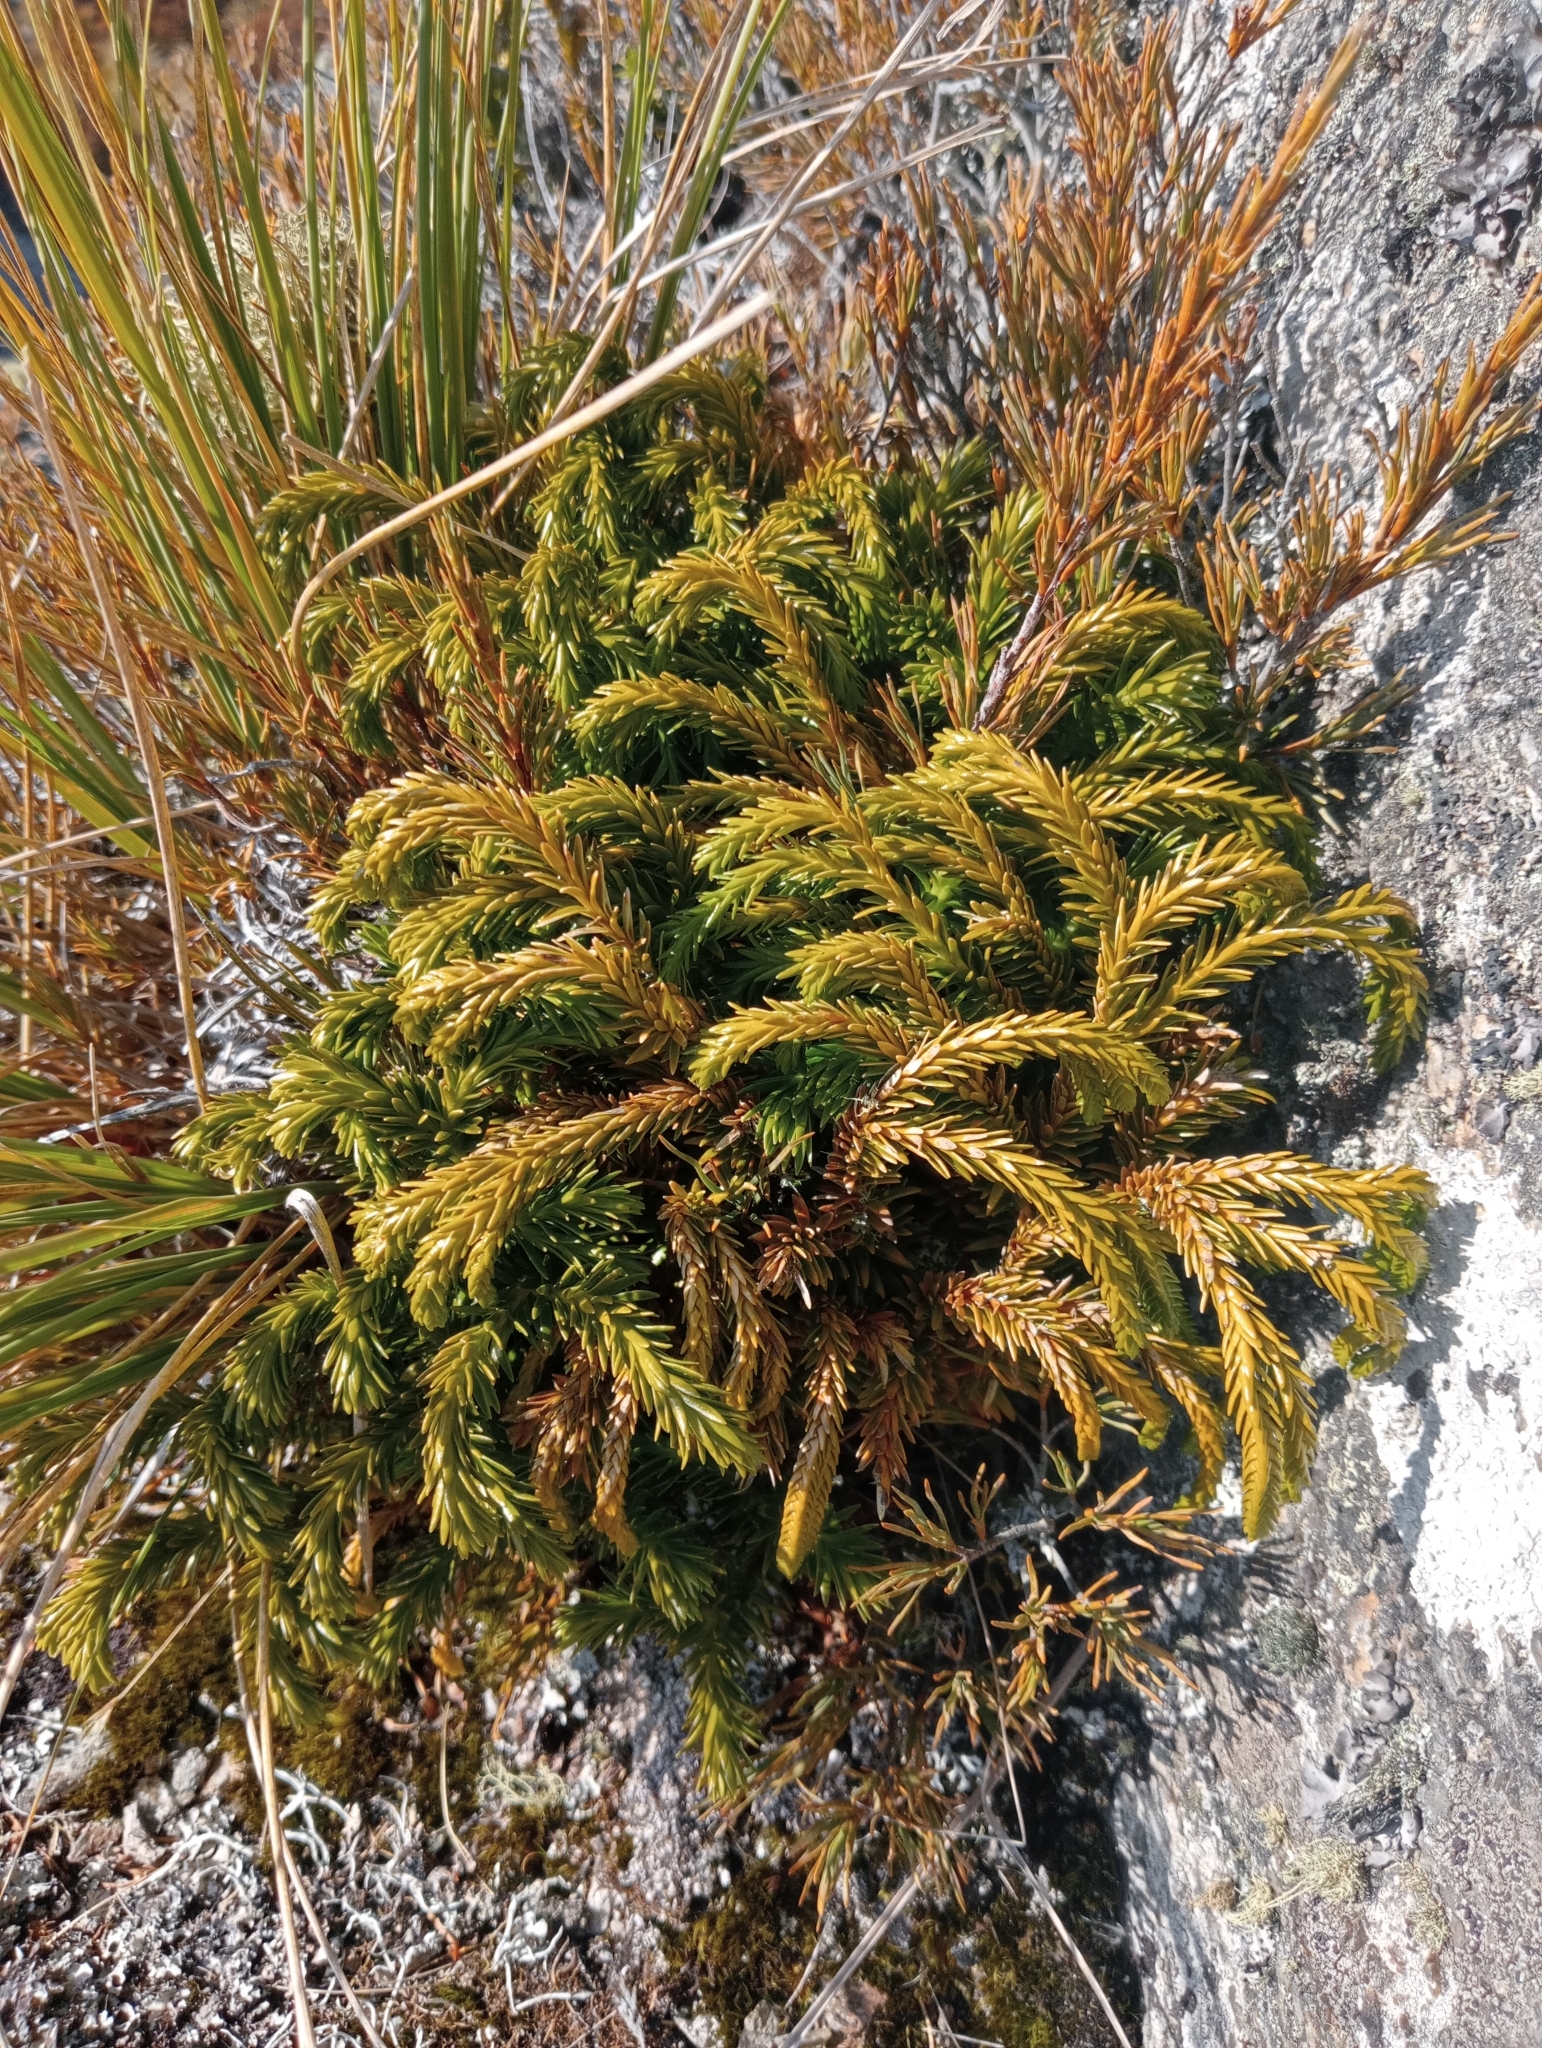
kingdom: Plantae
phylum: Tracheophyta
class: Lycopodiopsida
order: Lycopodiales
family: Lycopodiaceae
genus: Phlegmariurus
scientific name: Phlegmariurus varius
